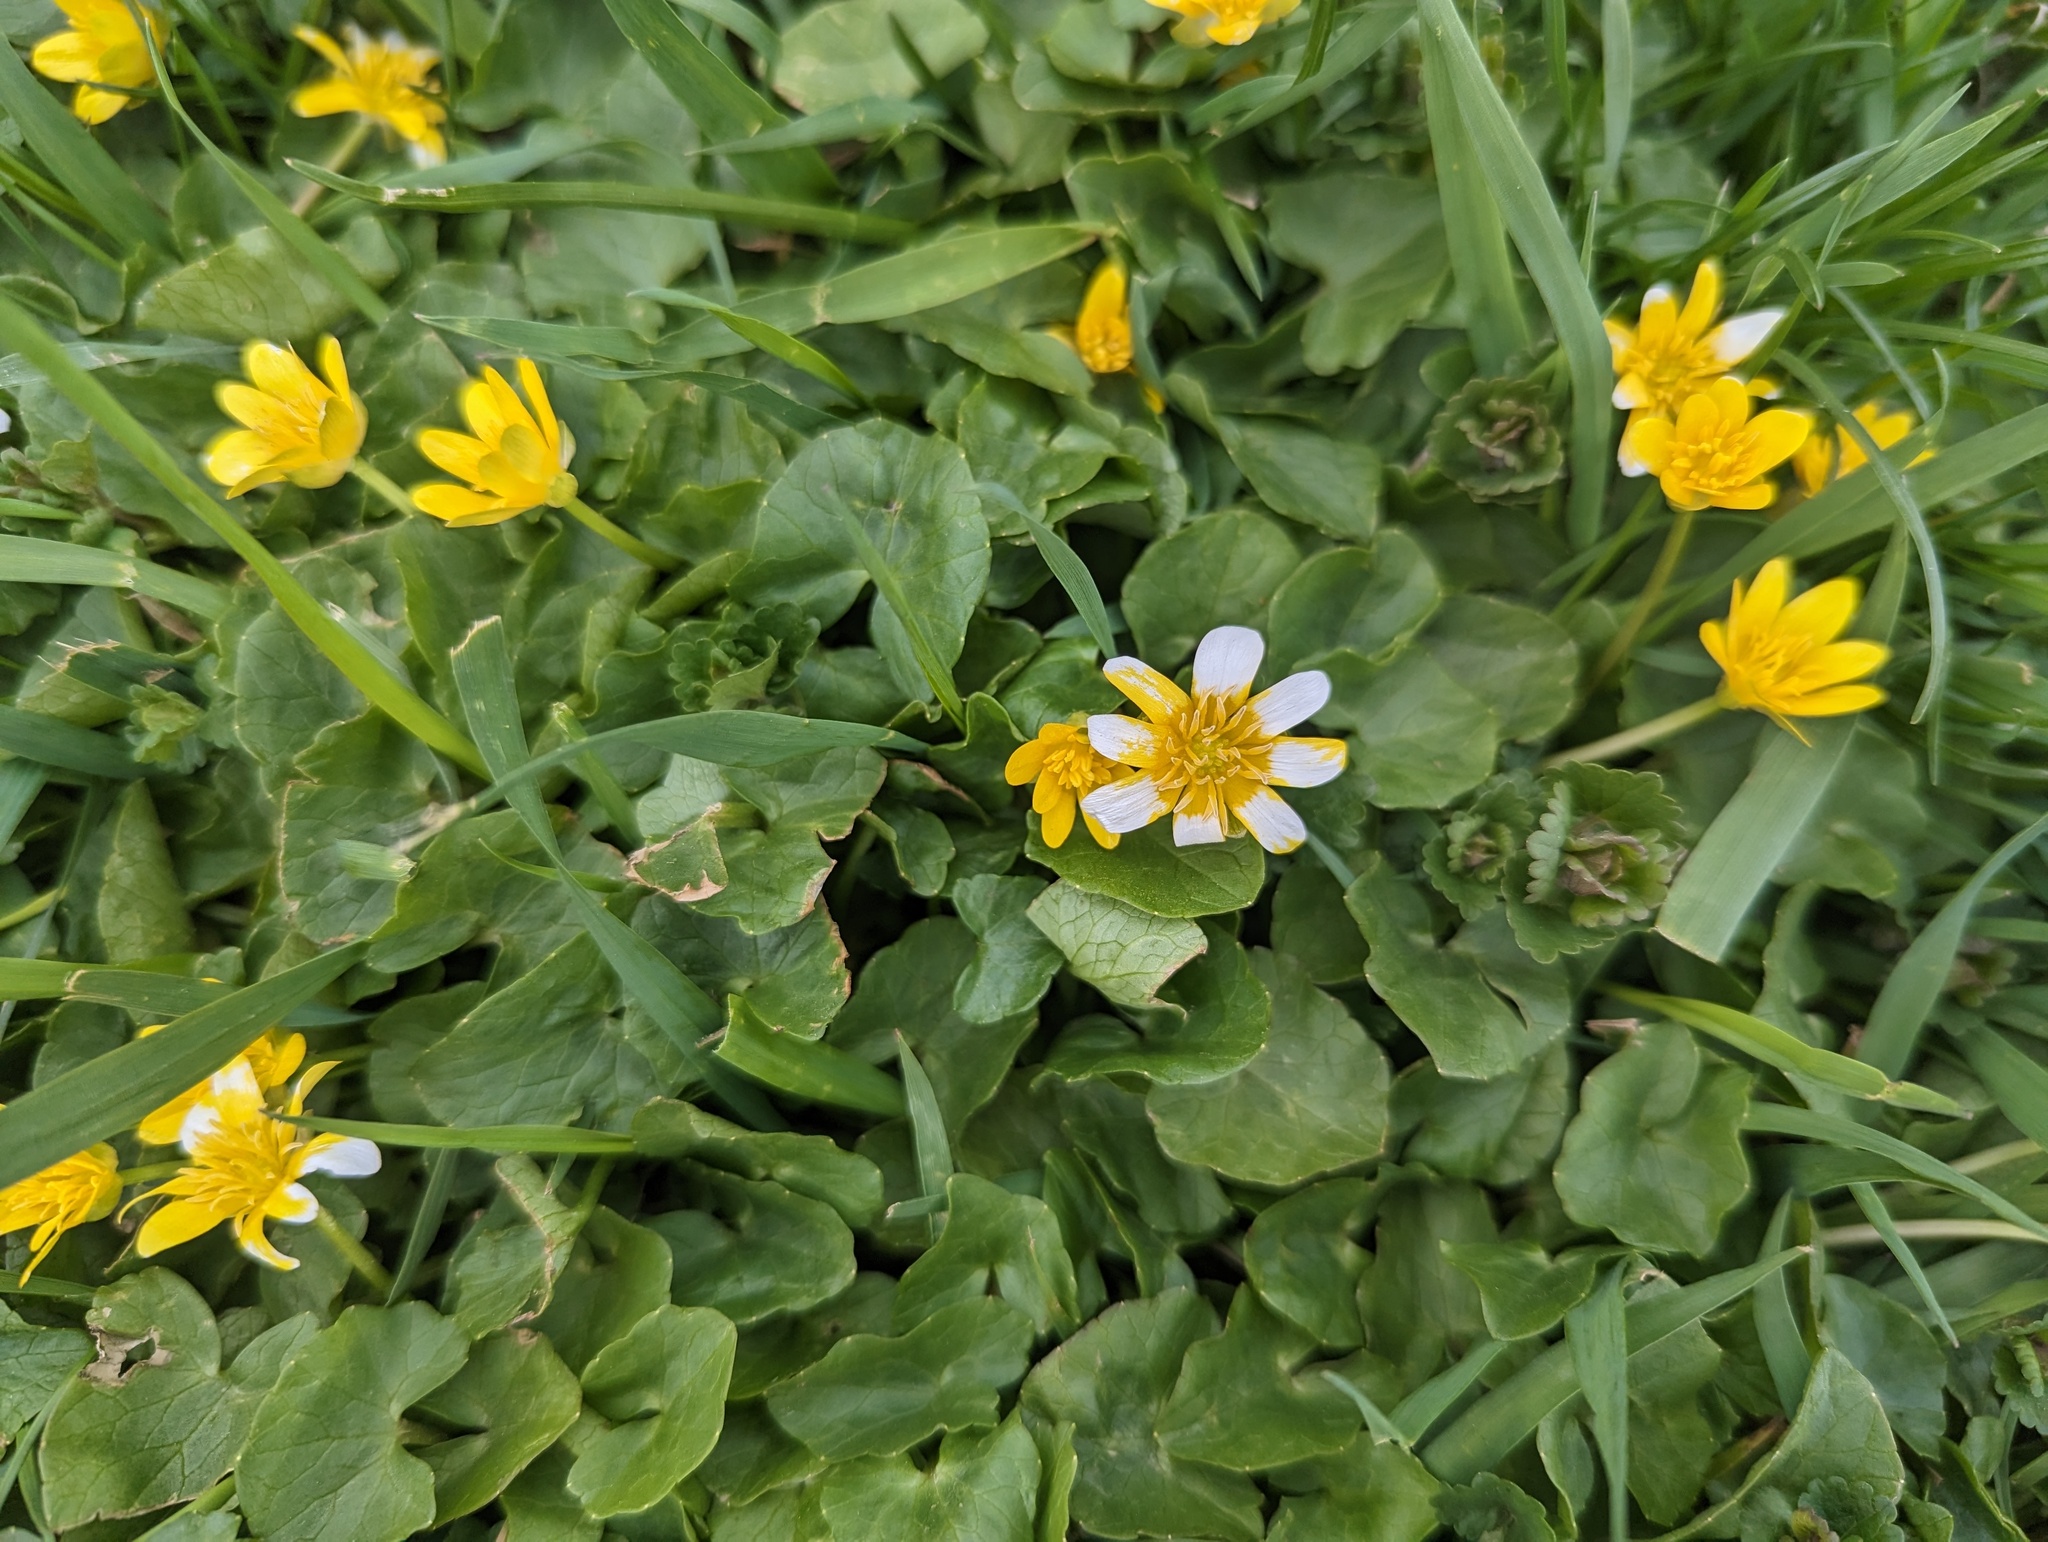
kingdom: Plantae
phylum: Tracheophyta
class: Magnoliopsida
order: Ranunculales
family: Ranunculaceae
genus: Ficaria
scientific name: Ficaria verna
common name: Lesser celandine
